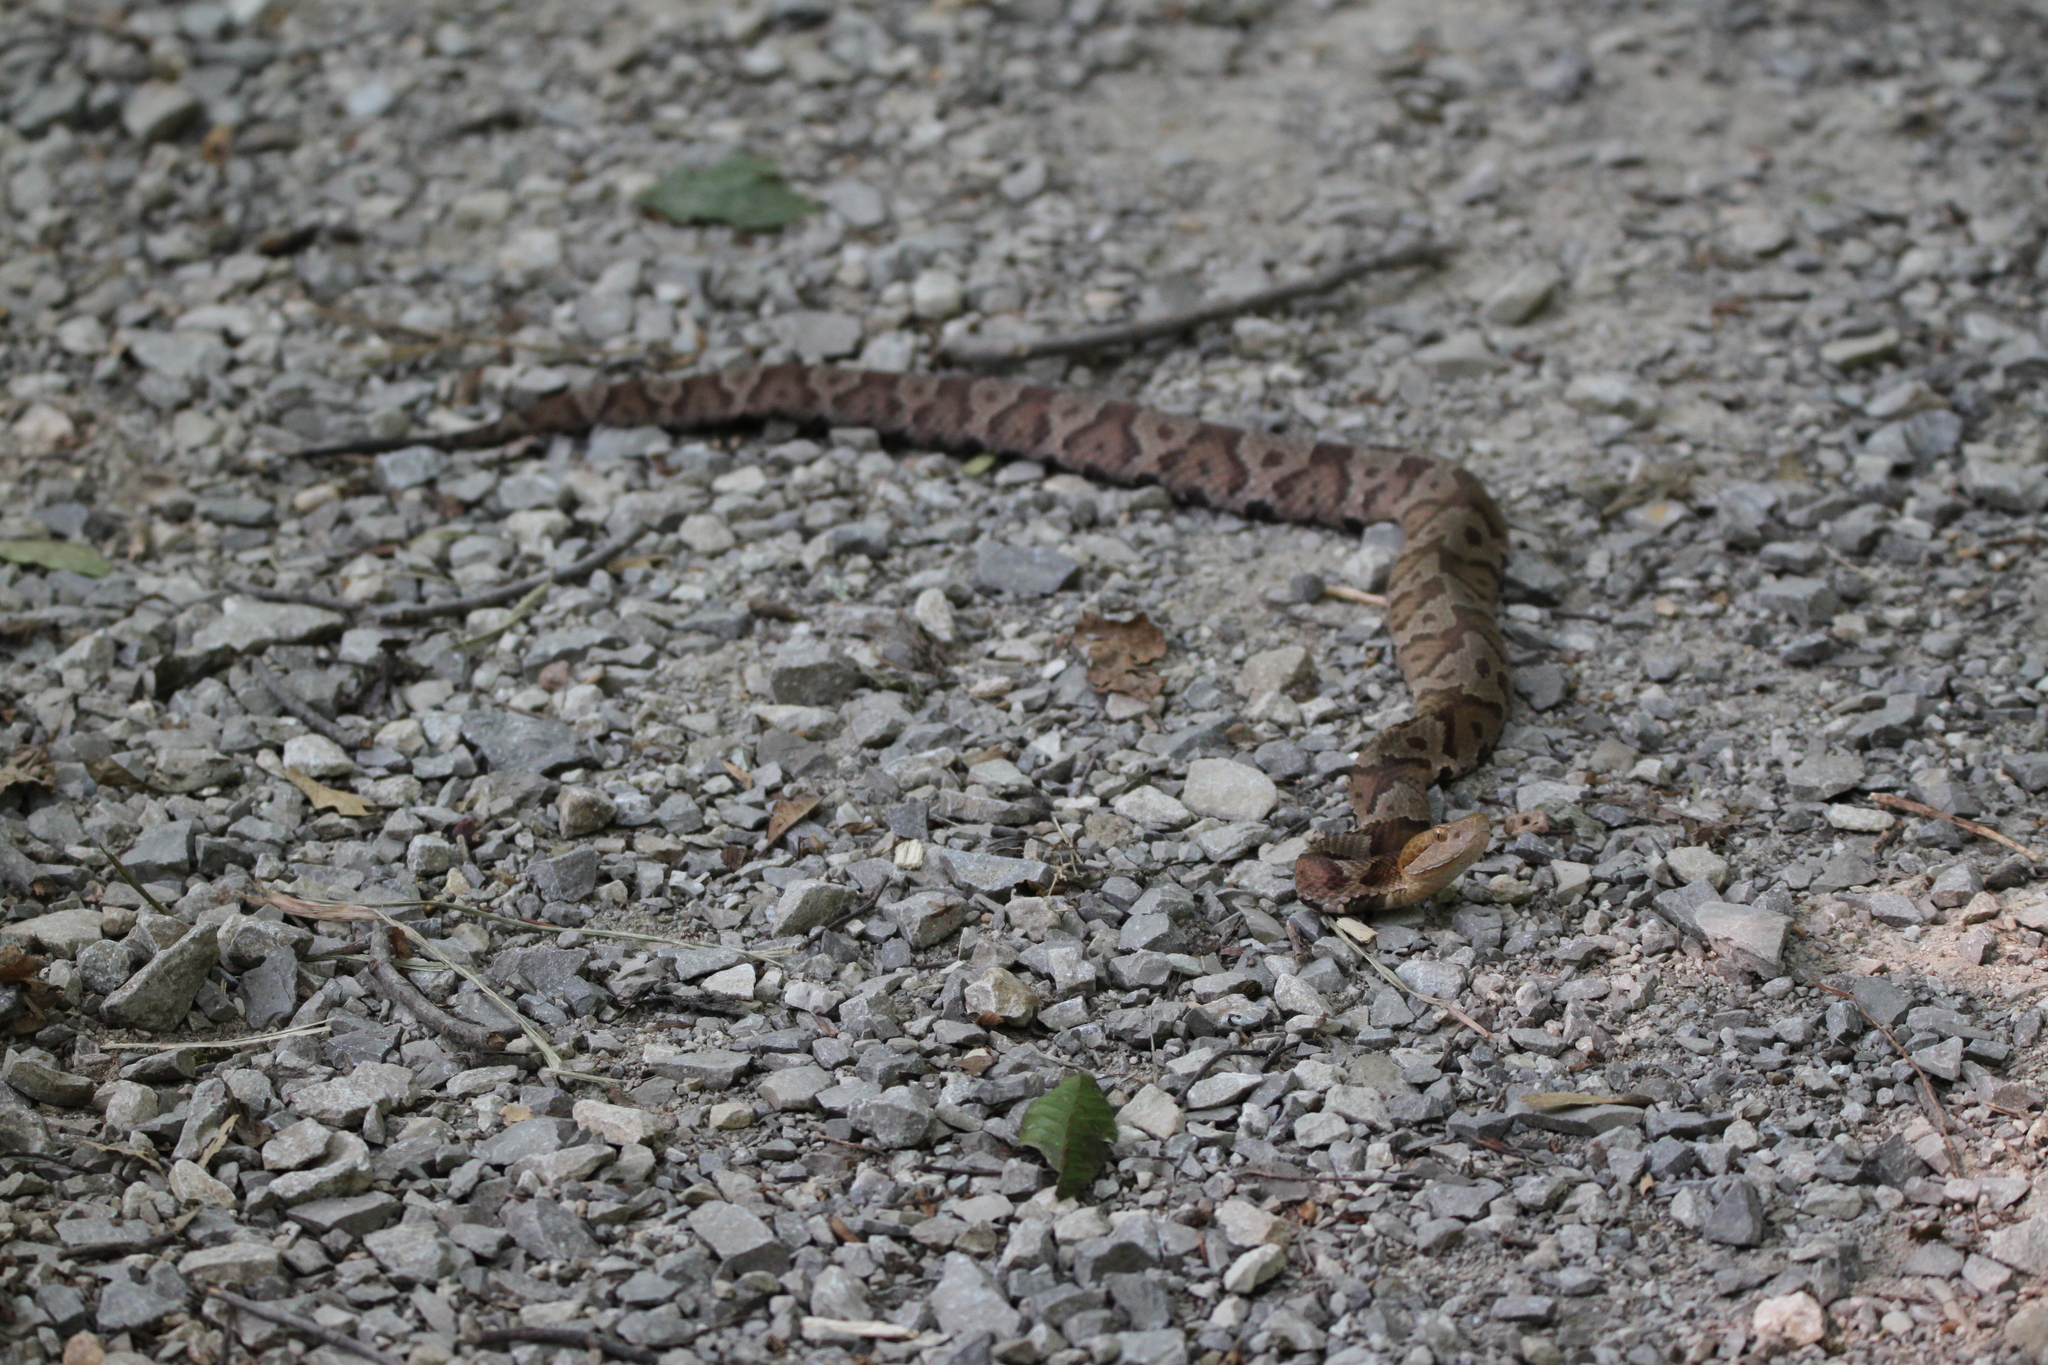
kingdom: Animalia
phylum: Chordata
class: Squamata
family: Viperidae
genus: Agkistrodon
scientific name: Agkistrodon contortrix
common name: Northern copperhead
